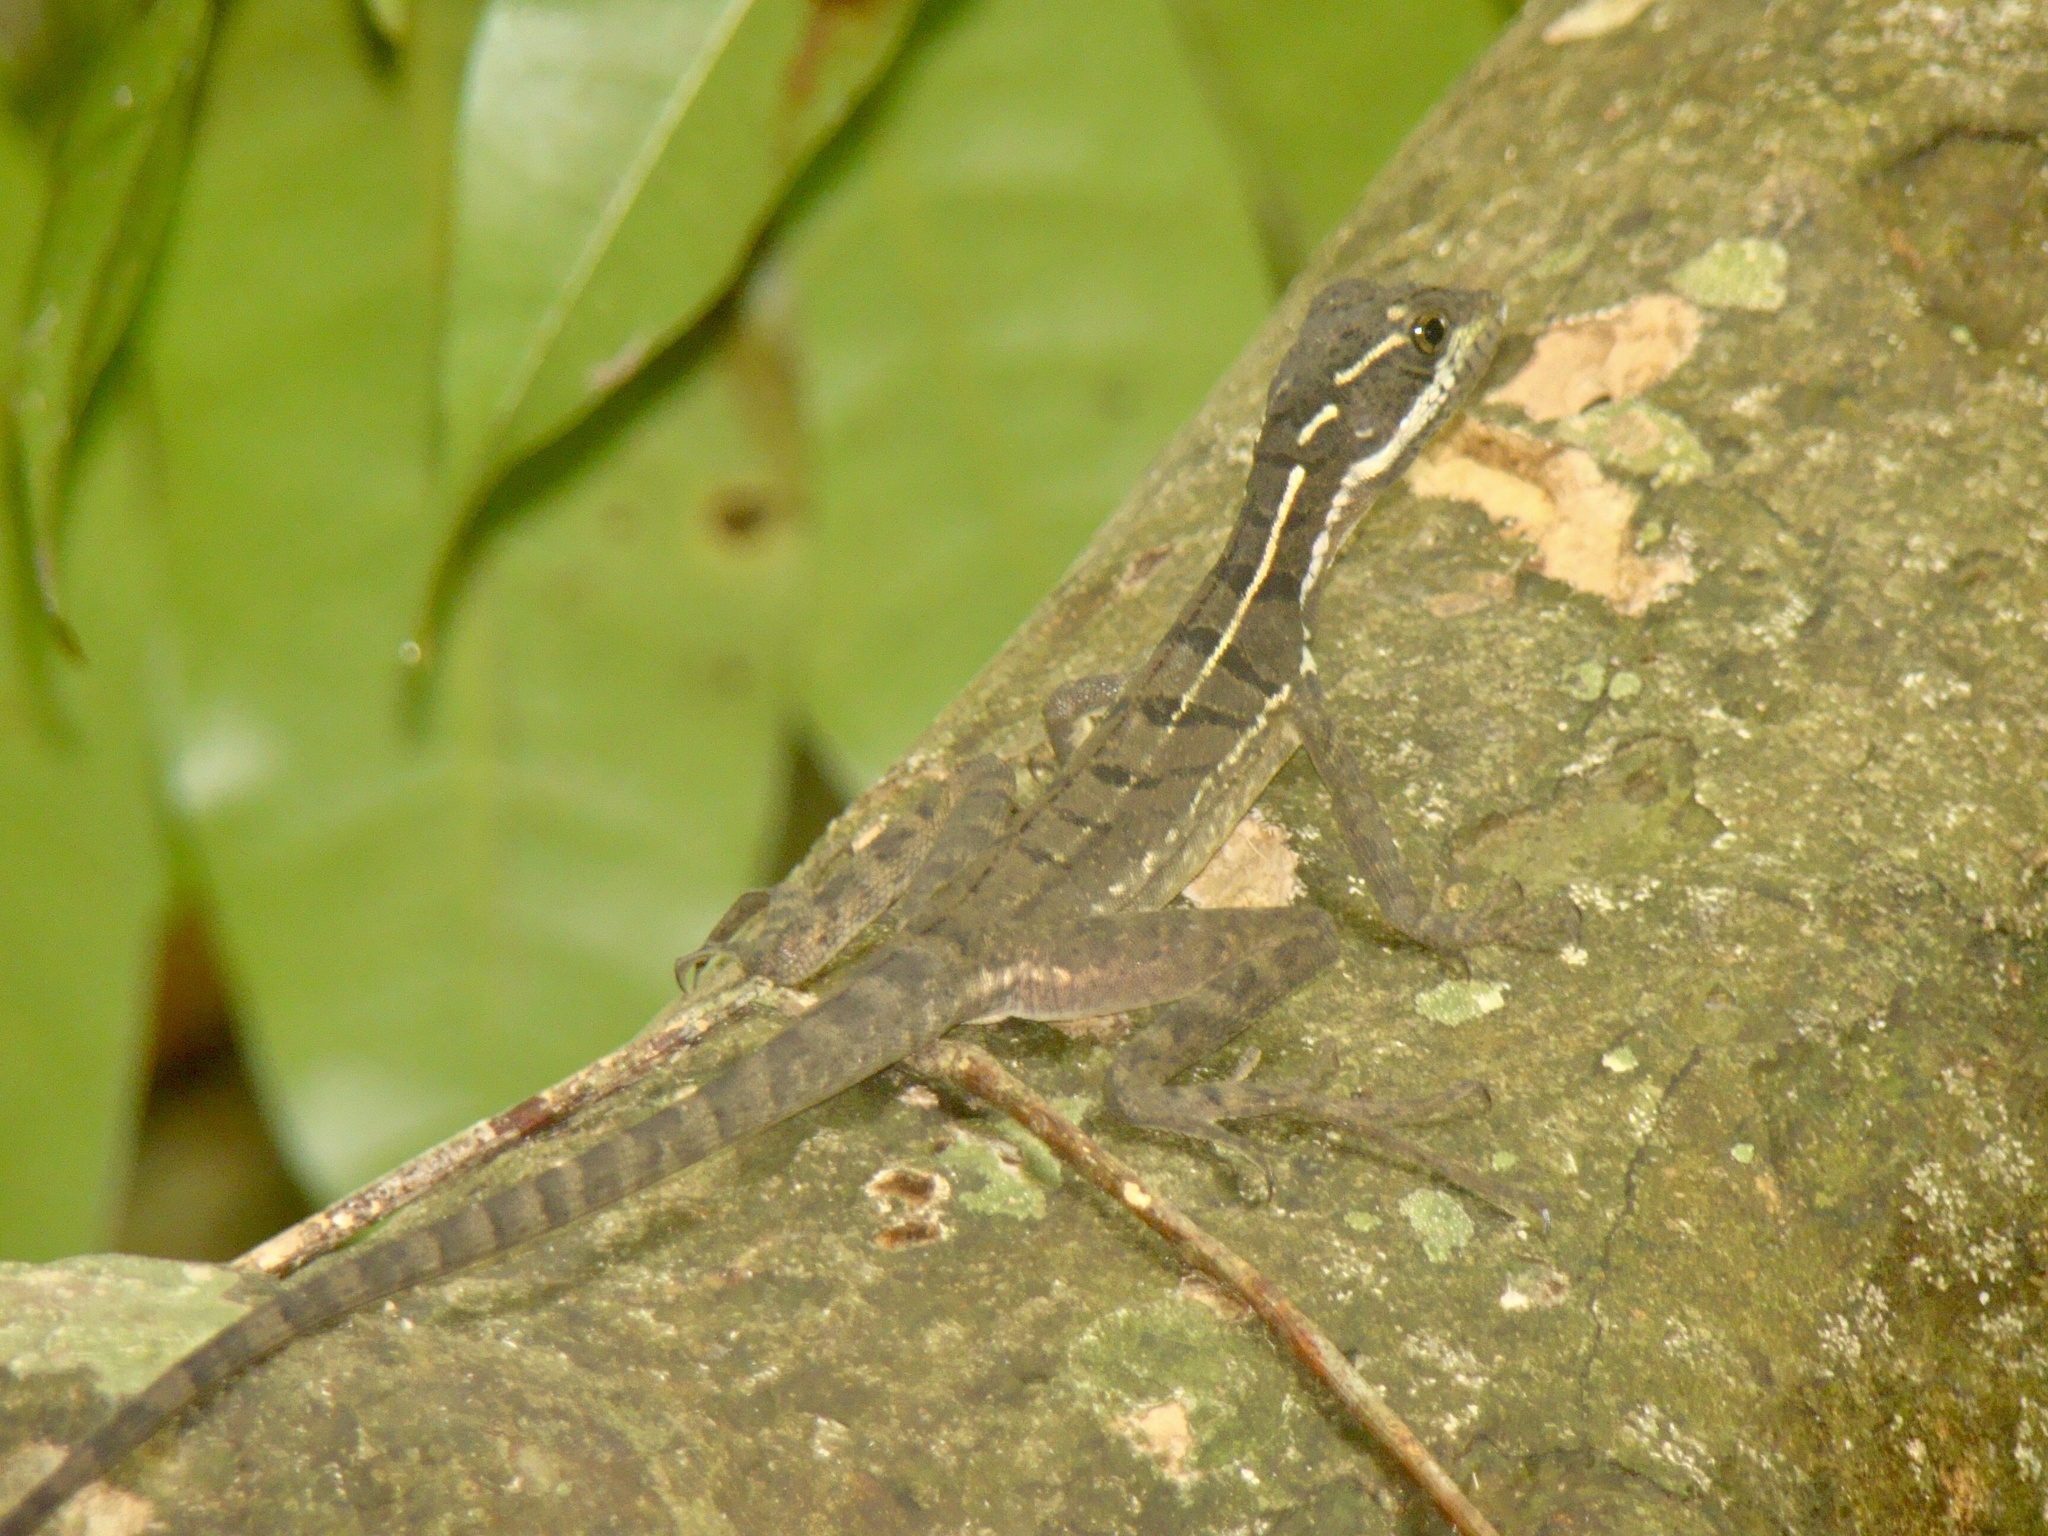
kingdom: Animalia
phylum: Chordata
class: Squamata
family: Corytophanidae
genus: Basiliscus
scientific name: Basiliscus basiliscus
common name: Common basilisk
